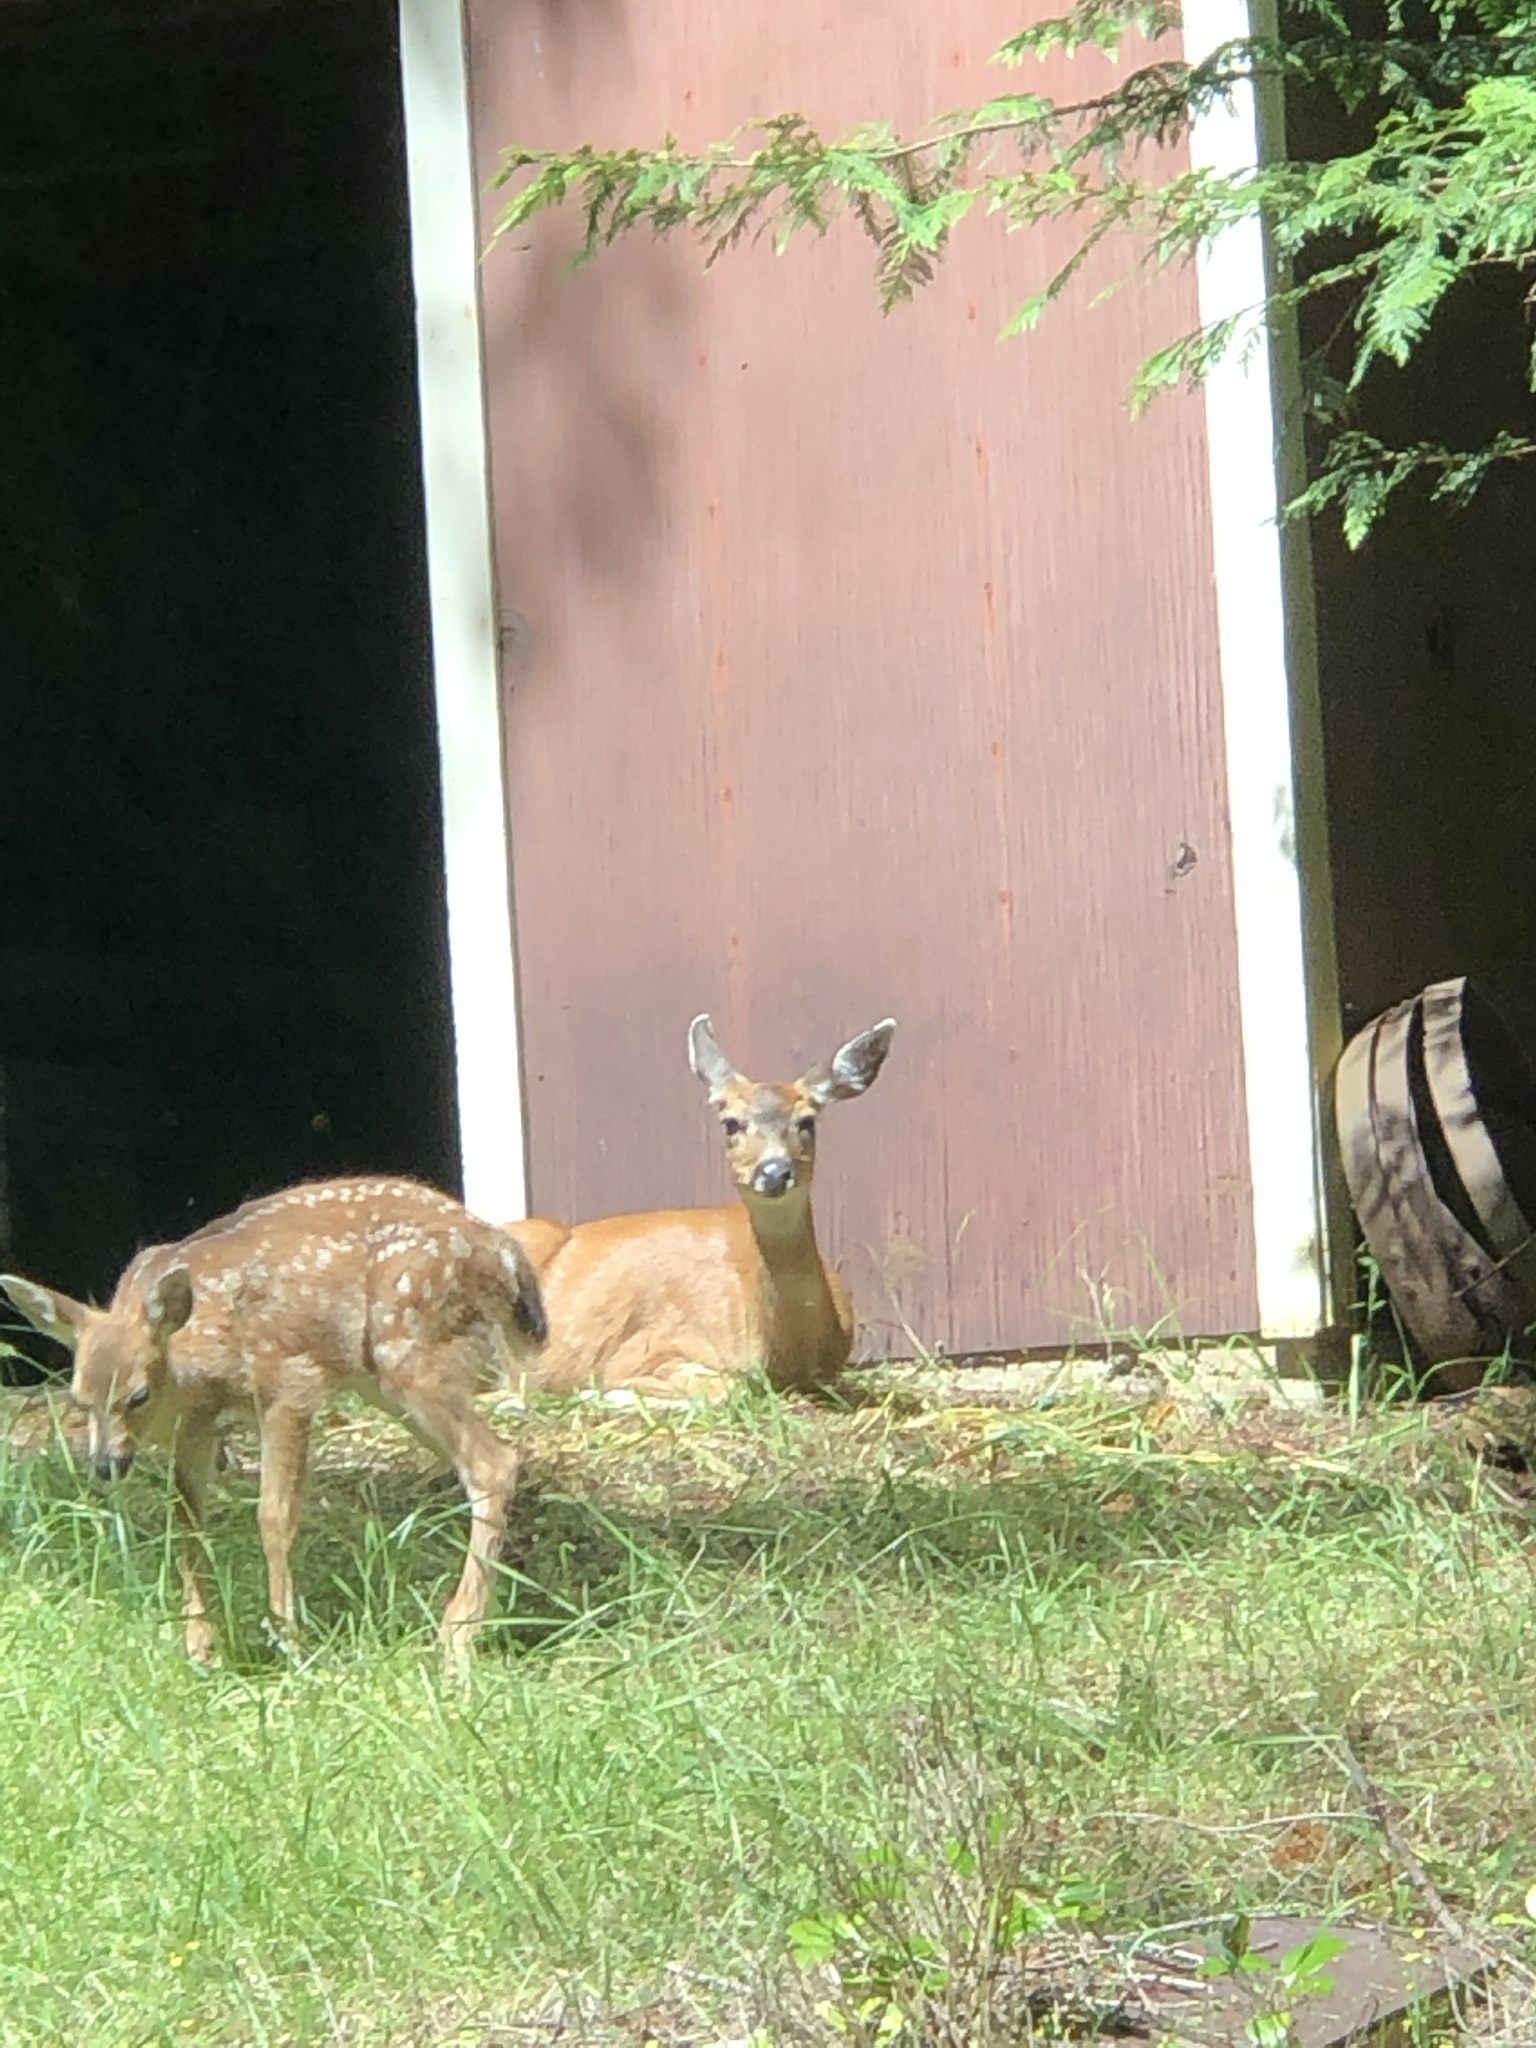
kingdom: Animalia
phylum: Chordata
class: Mammalia
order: Artiodactyla
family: Cervidae
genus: Odocoileus
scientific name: Odocoileus hemionus
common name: Mule deer
